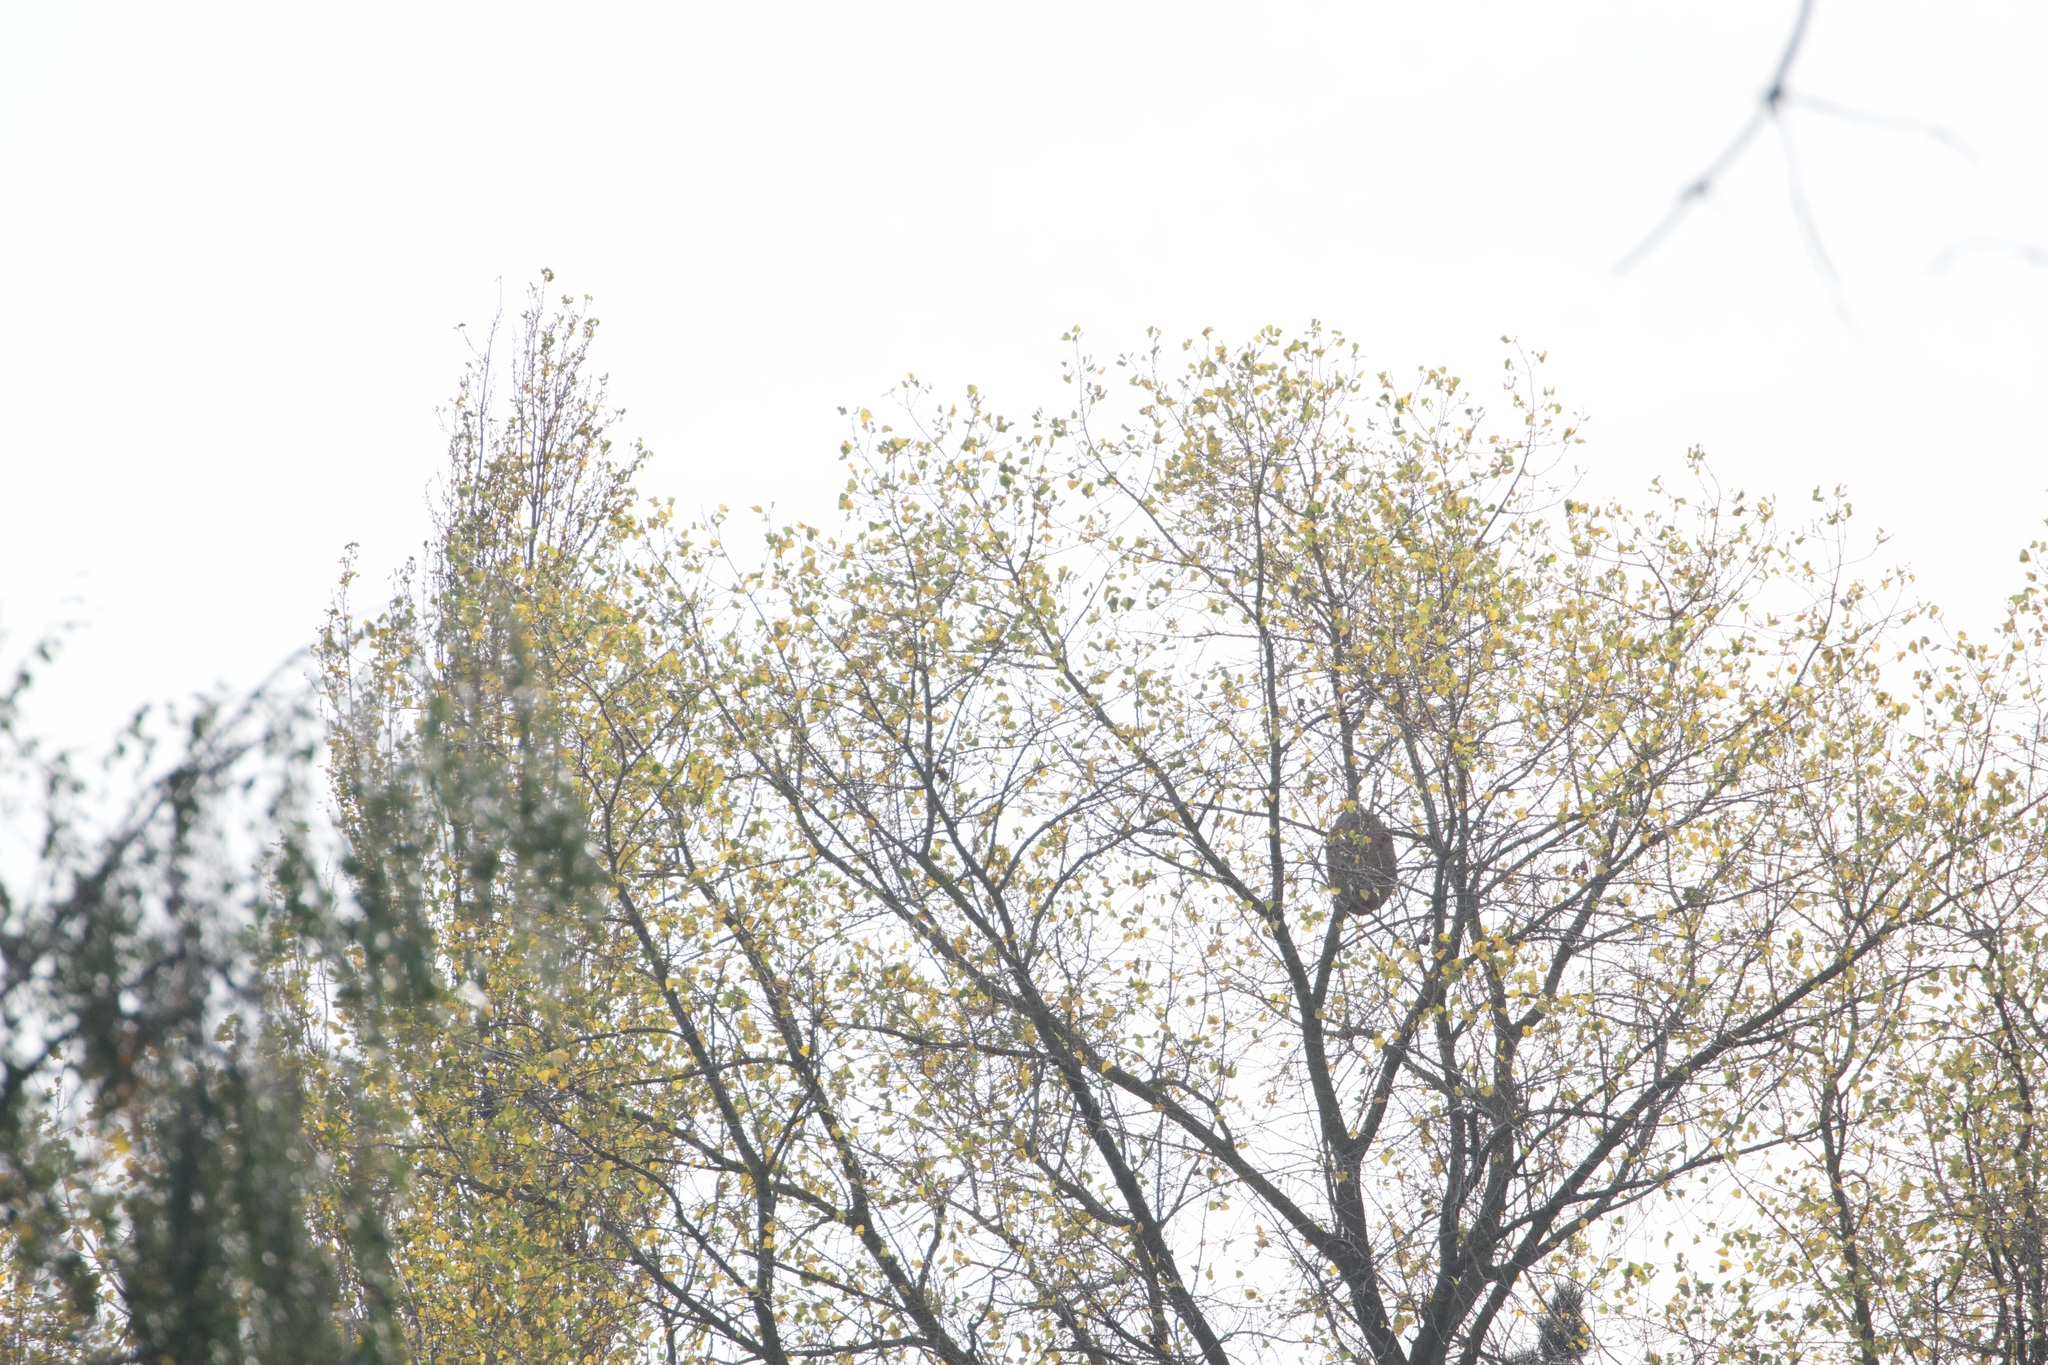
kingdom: Animalia
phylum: Arthropoda
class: Insecta
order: Hymenoptera
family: Vespidae
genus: Vespa
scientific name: Vespa velutina
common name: Asian hornet
